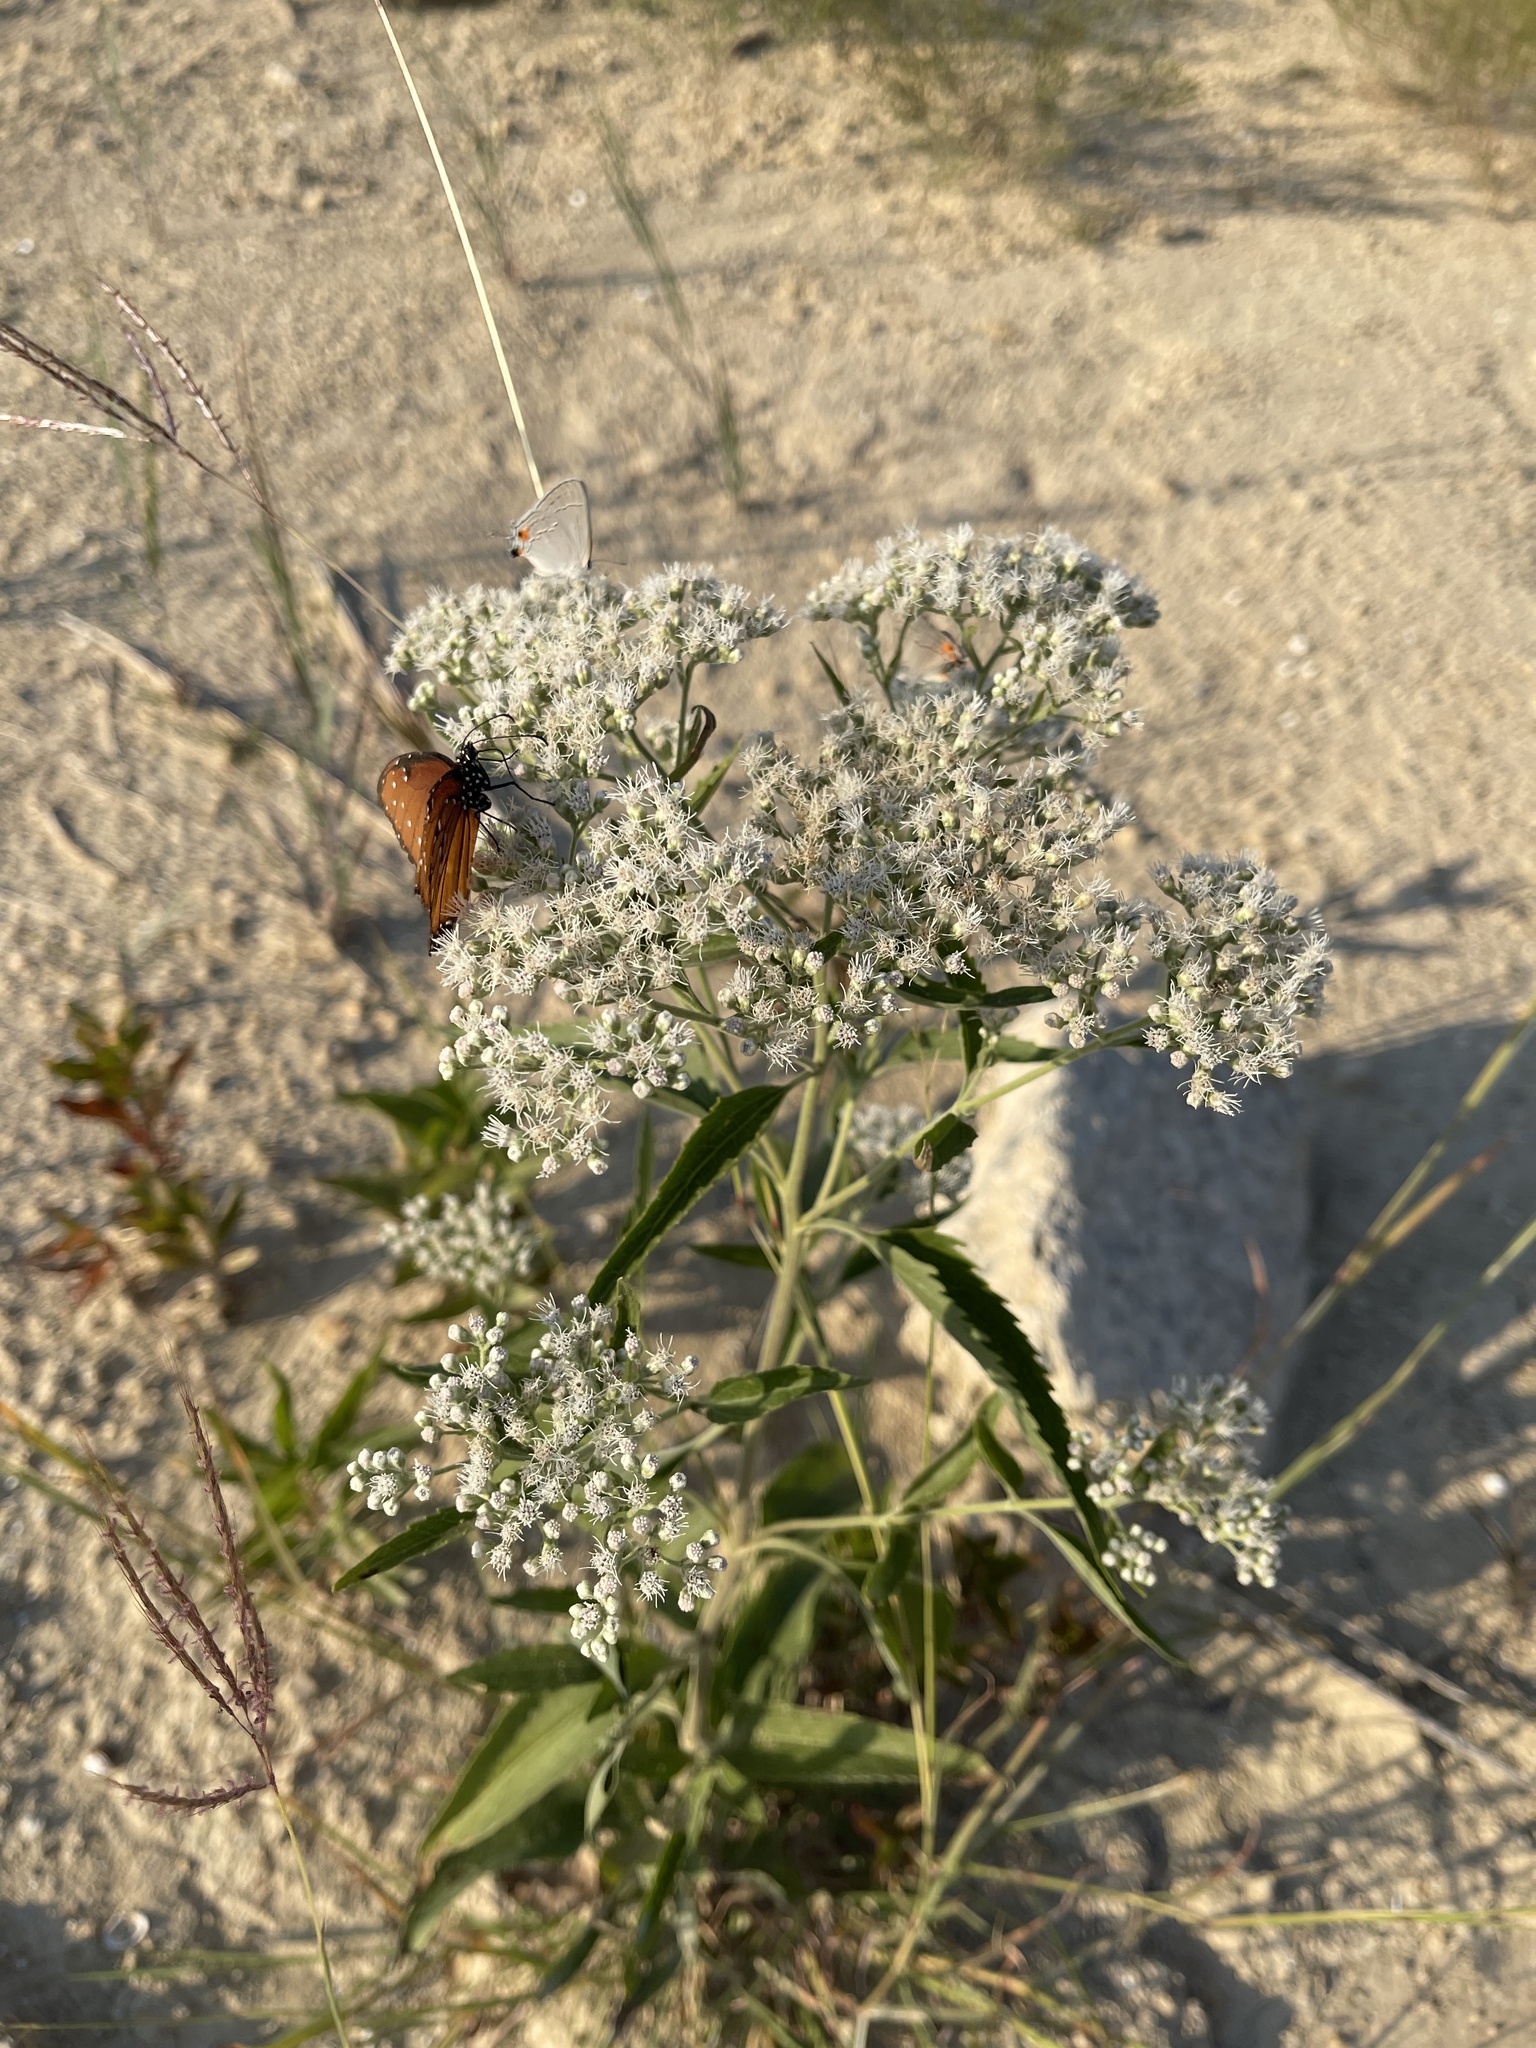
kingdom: Plantae
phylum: Tracheophyta
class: Magnoliopsida
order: Asterales
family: Asteraceae
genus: Eupatorium
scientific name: Eupatorium serotinum
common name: Late boneset
